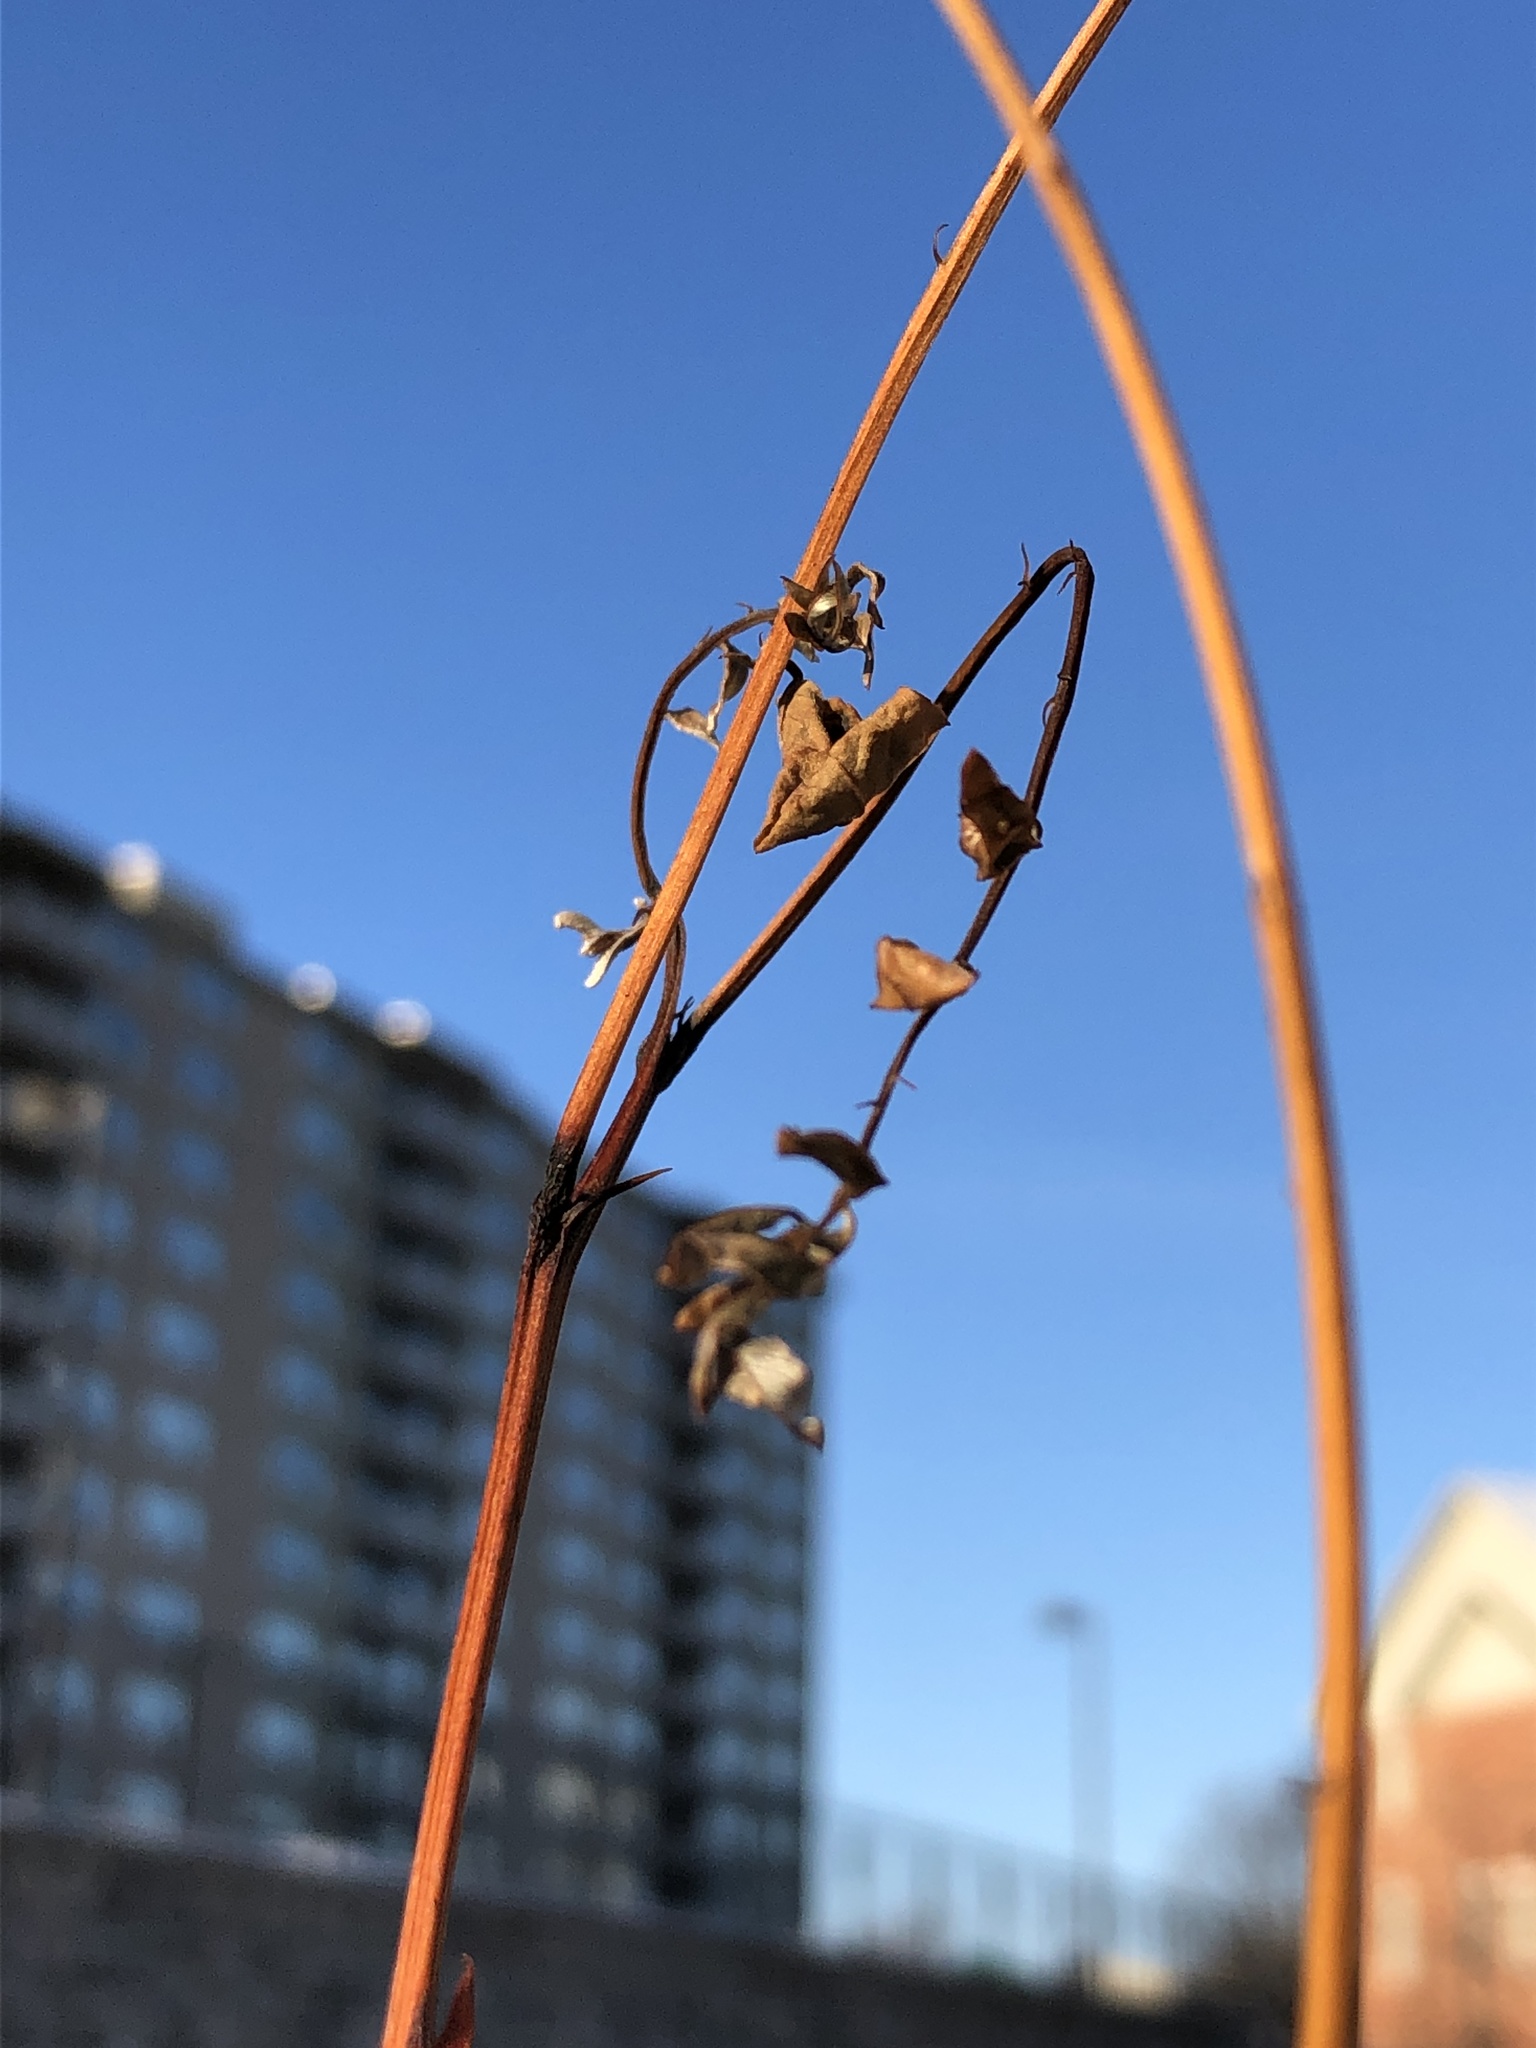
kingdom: Plantae
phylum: Tracheophyta
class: Magnoliopsida
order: Fabales
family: Fabaceae
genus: Robinia
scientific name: Robinia pseudoacacia
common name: Black locust
